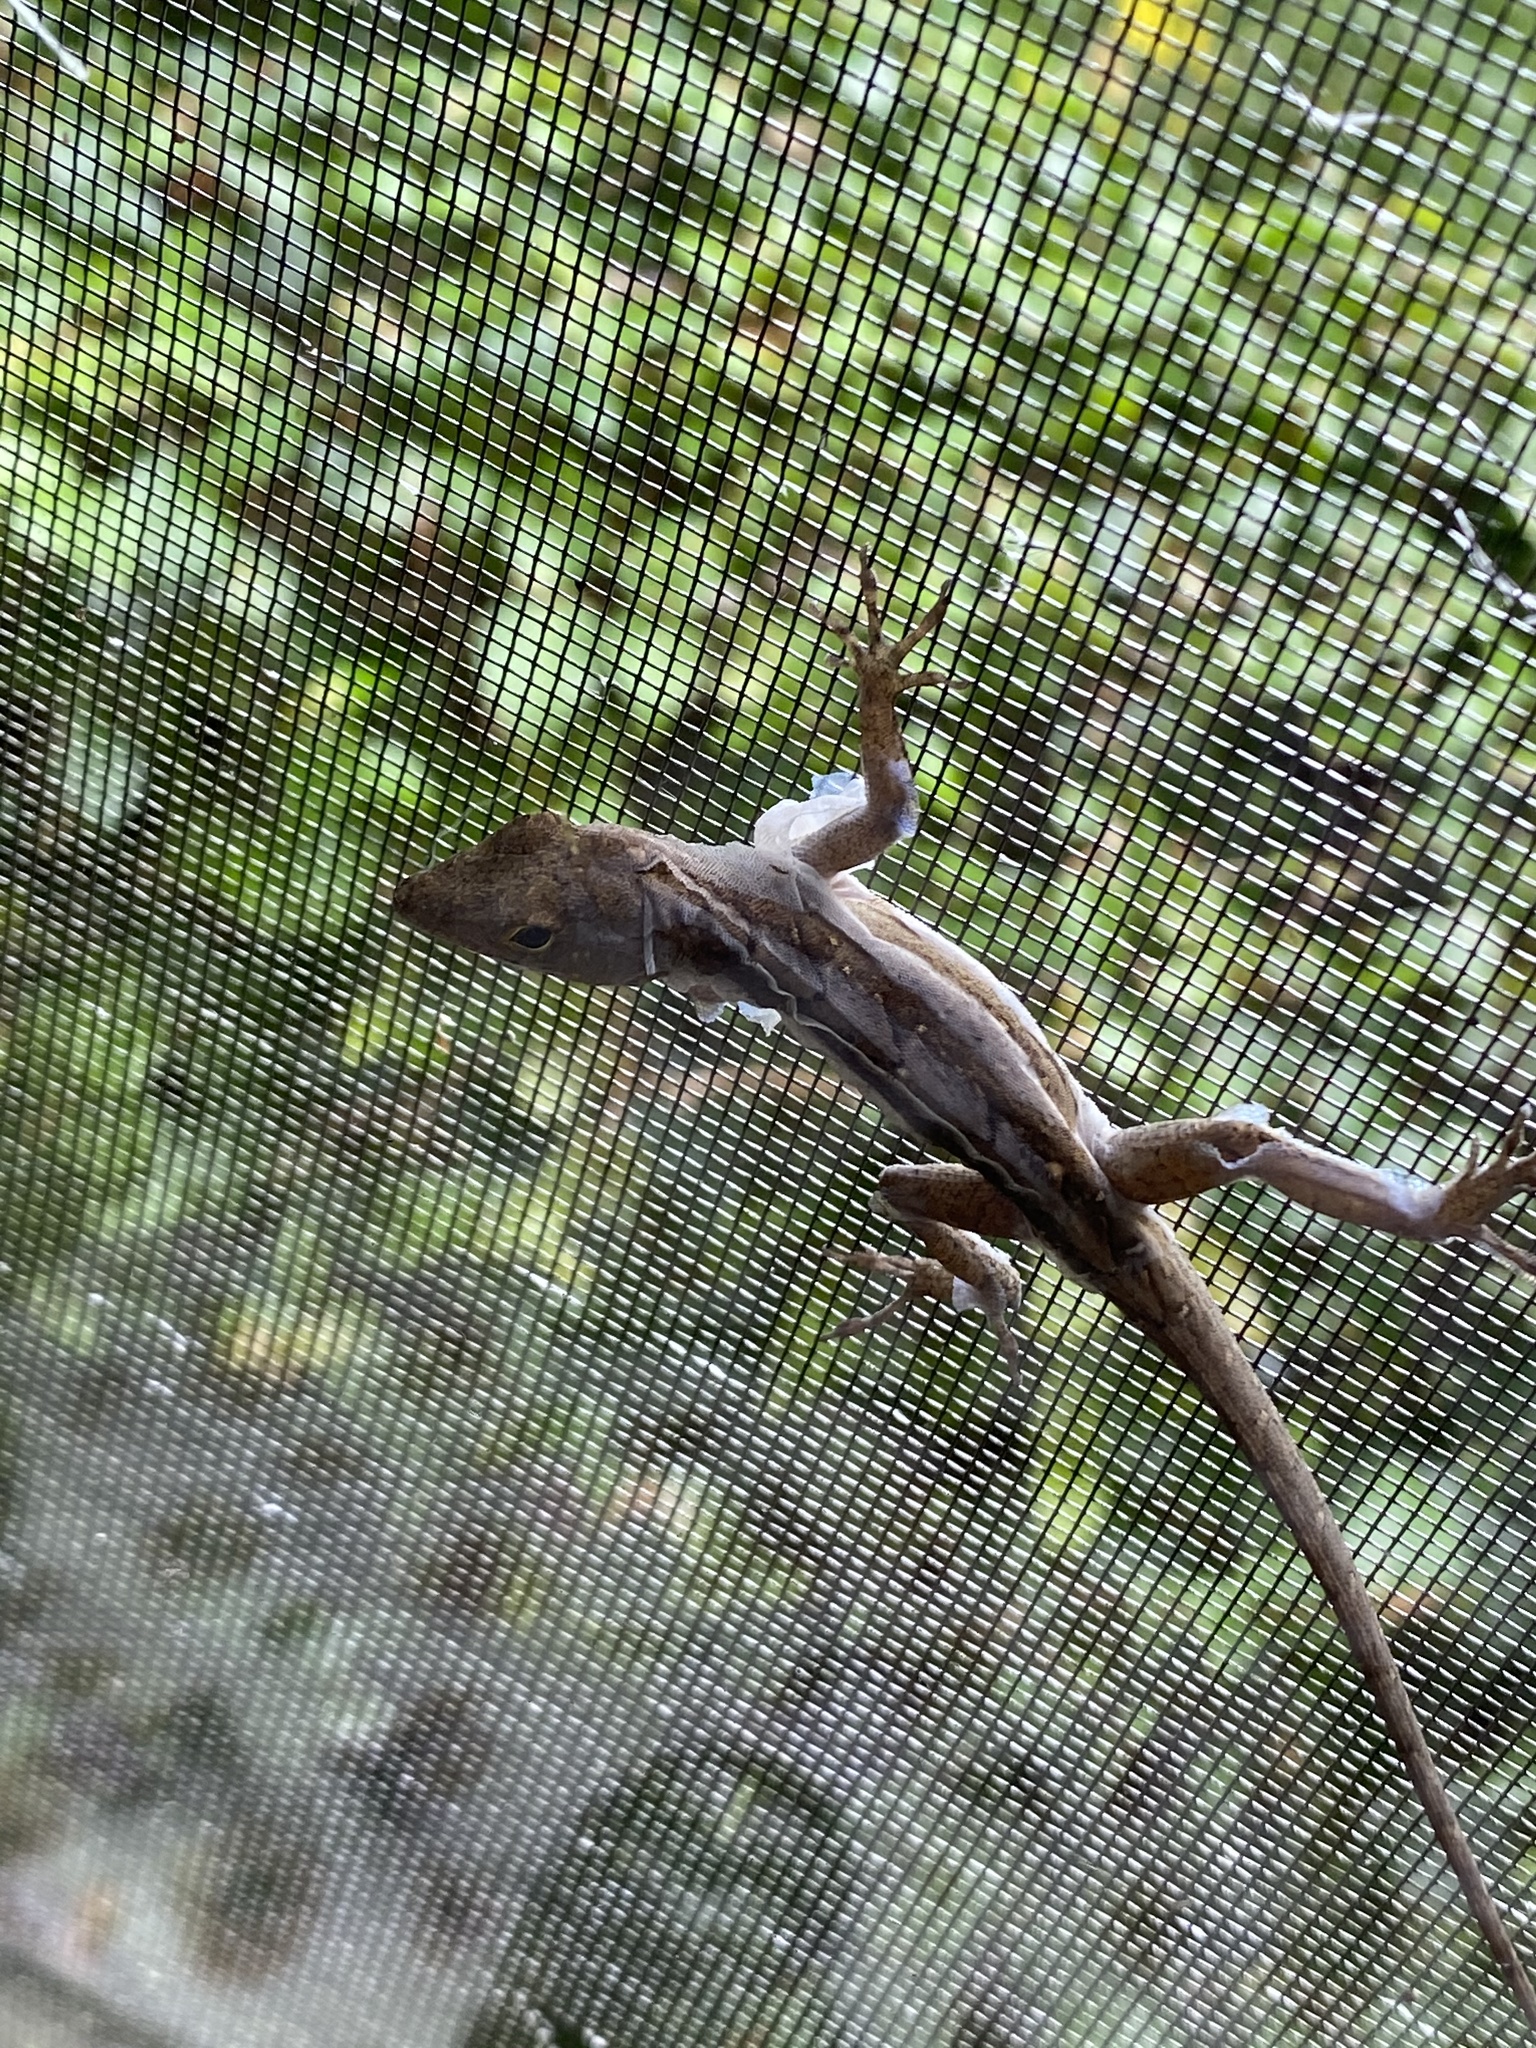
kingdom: Animalia
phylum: Chordata
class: Squamata
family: Dactyloidae
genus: Anolis
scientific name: Anolis sagrei
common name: Brown anole
